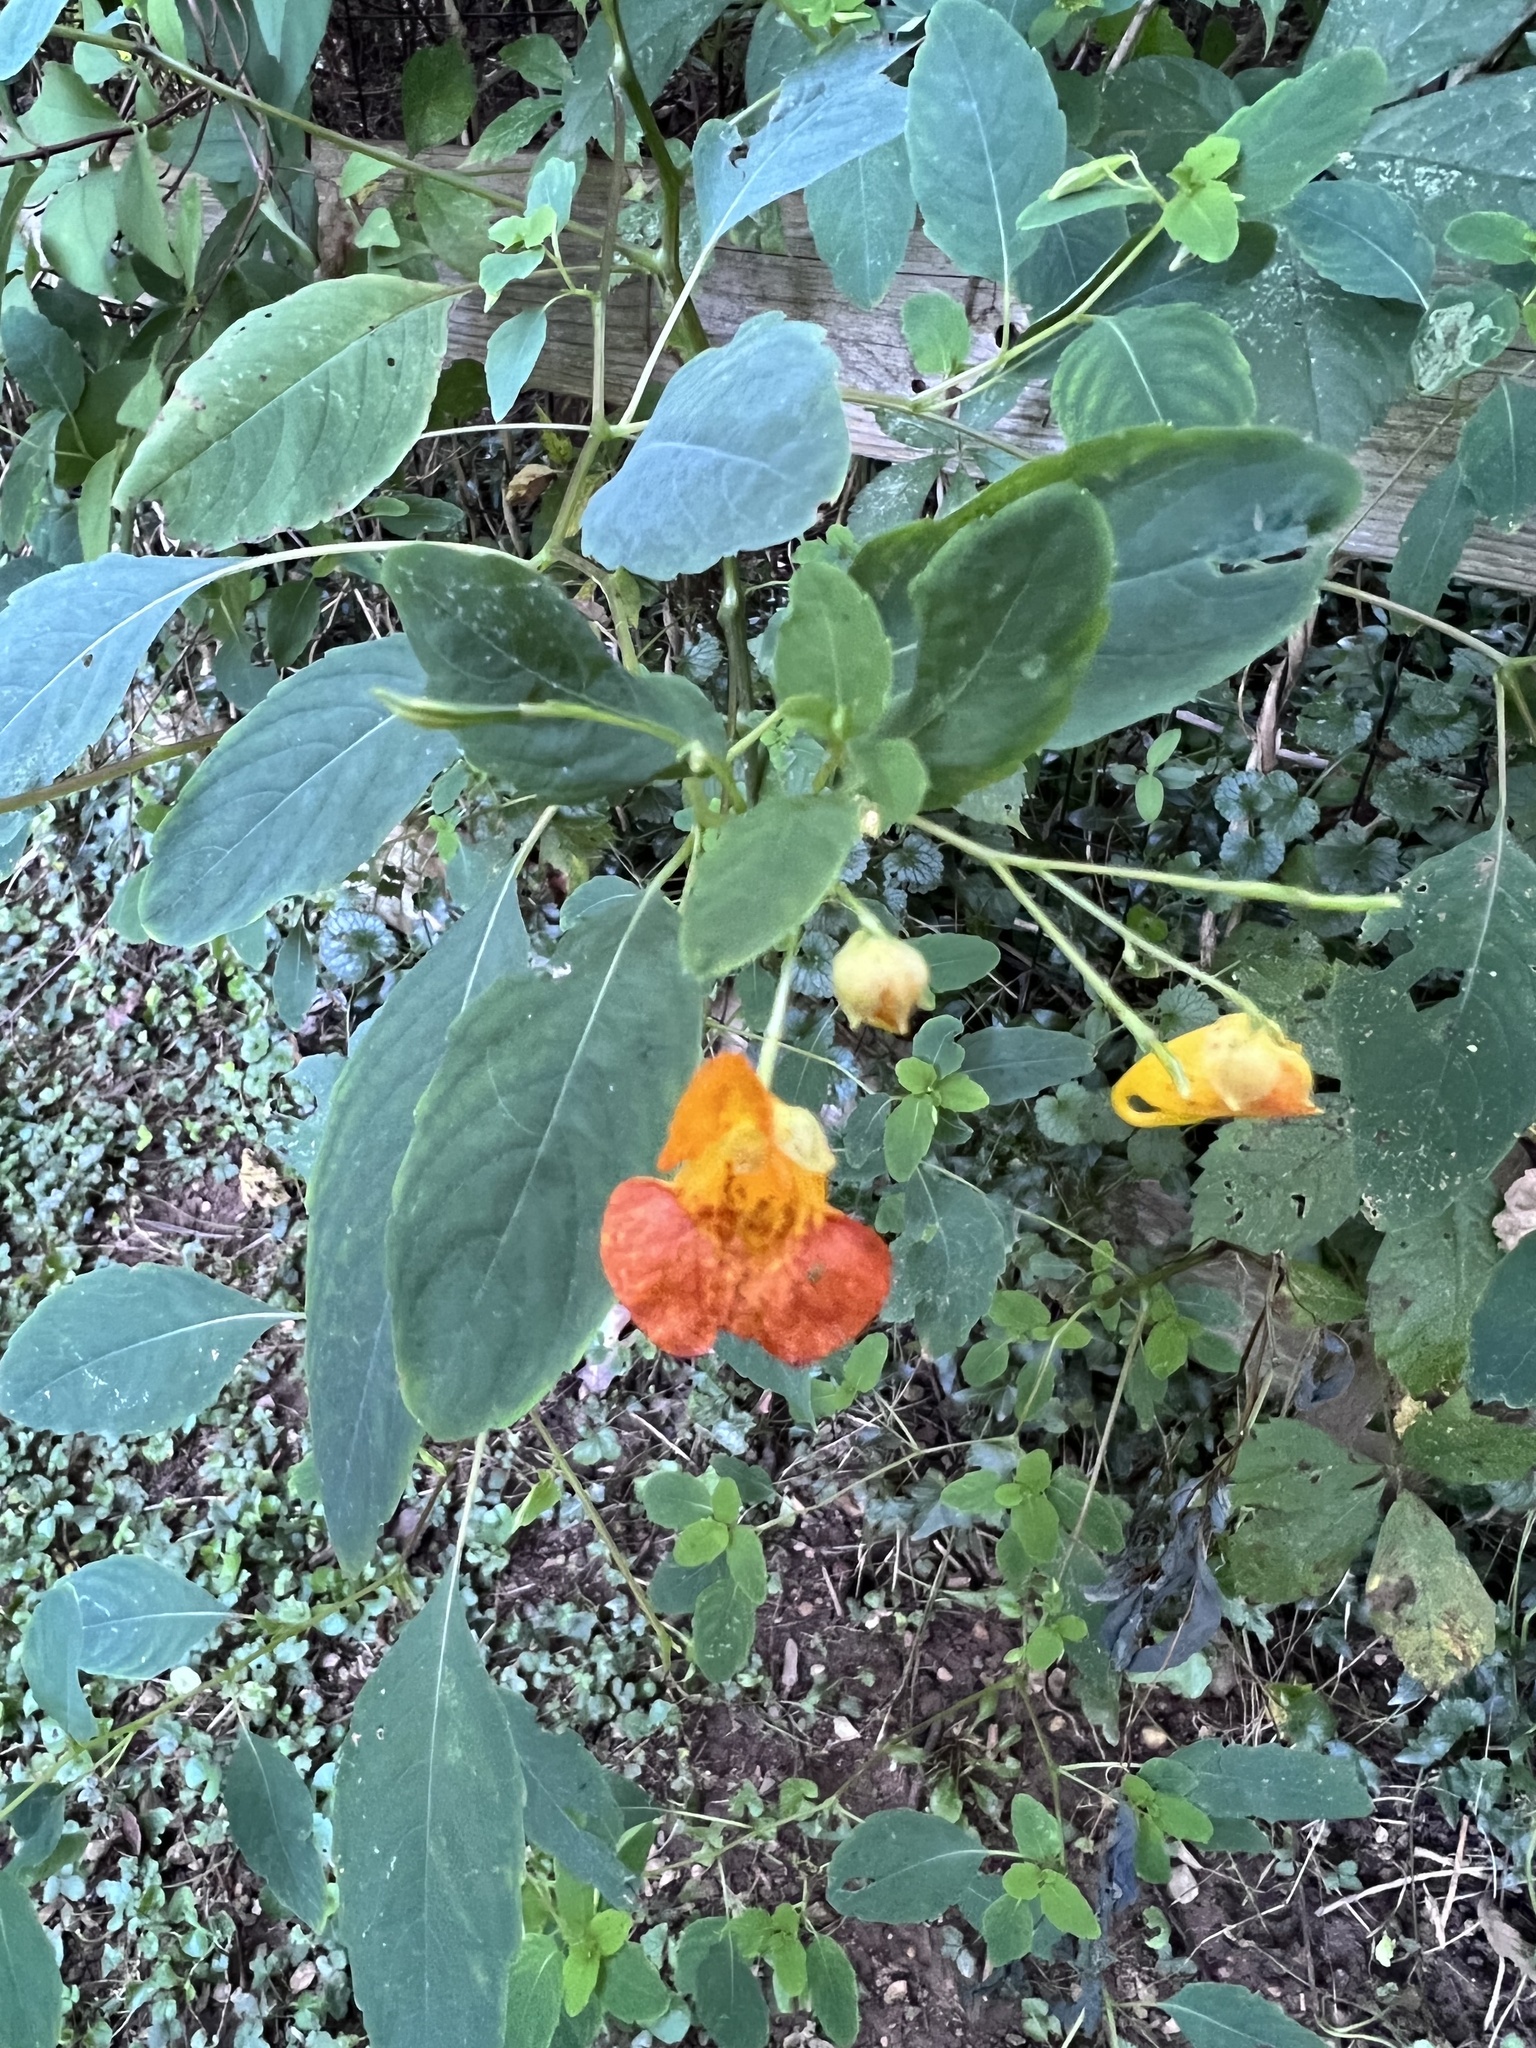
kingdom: Plantae
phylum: Tracheophyta
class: Magnoliopsida
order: Ericales
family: Balsaminaceae
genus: Impatiens
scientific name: Impatiens capensis
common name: Orange balsam
